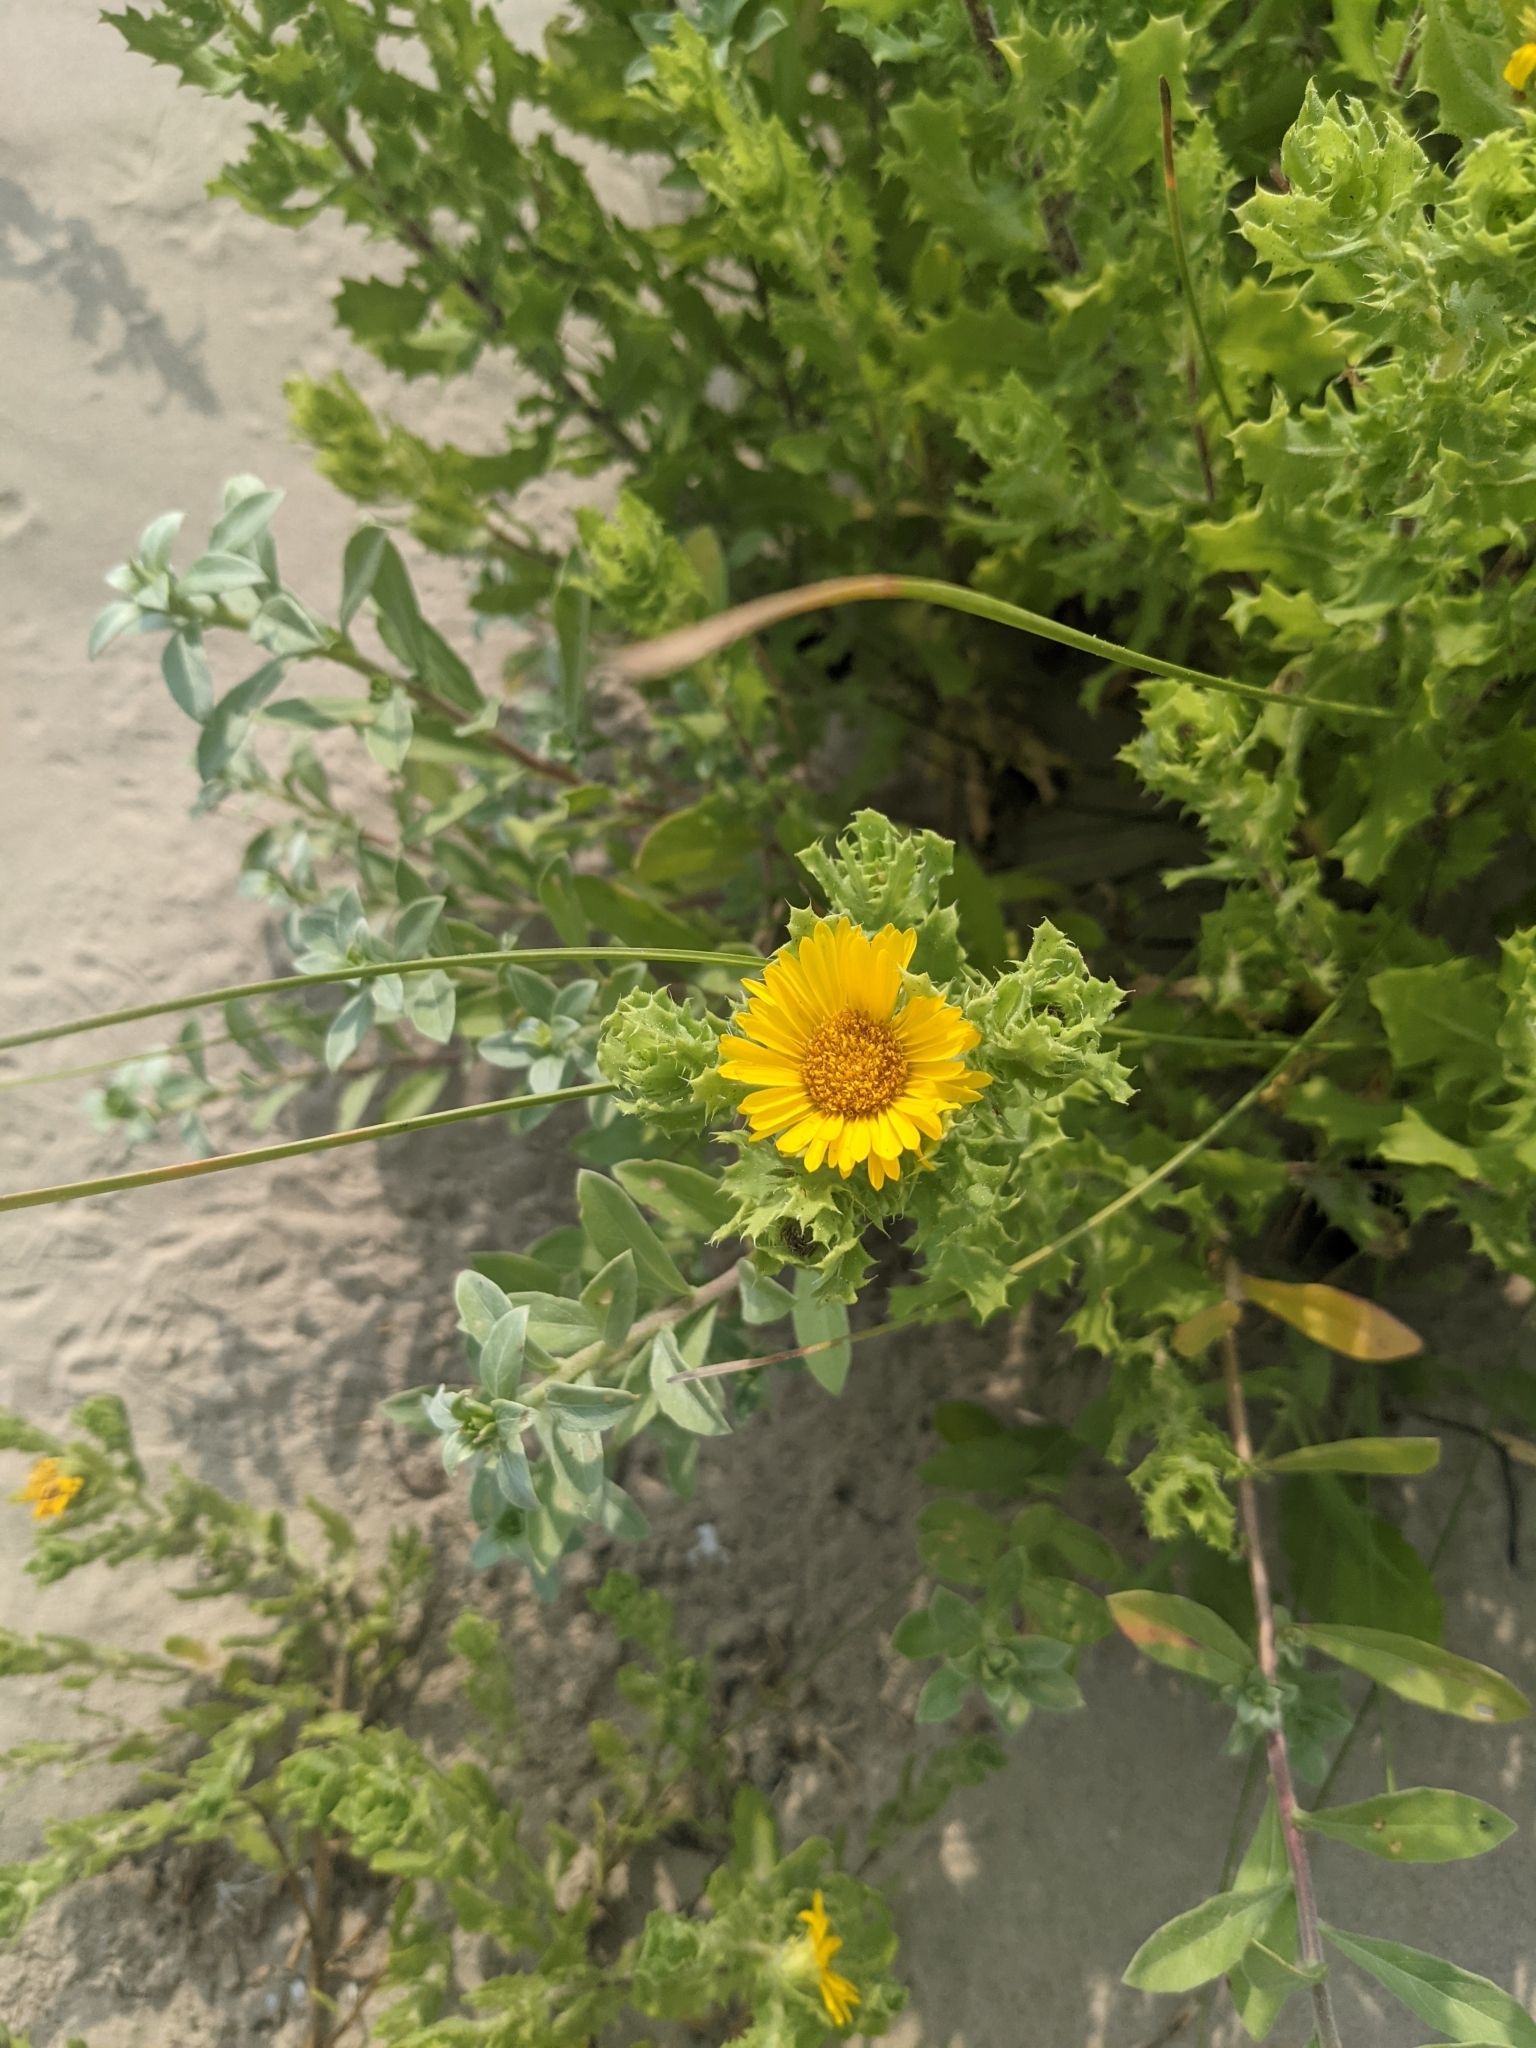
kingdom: Plantae
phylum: Tracheophyta
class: Magnoliopsida
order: Asterales
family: Asteraceae
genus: Rayjacksonia
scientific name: Rayjacksonia phyllocephala
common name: Gulf coast camphor daisy
